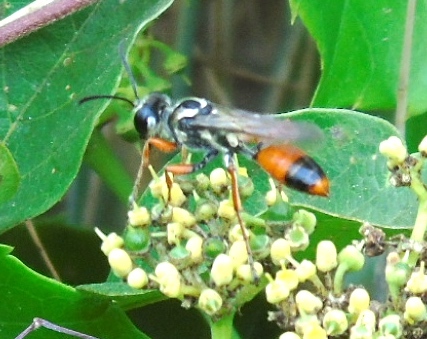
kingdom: Animalia
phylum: Arthropoda
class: Insecta
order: Hymenoptera
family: Sphecidae
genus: Sphex
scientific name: Sphex dorsalis
